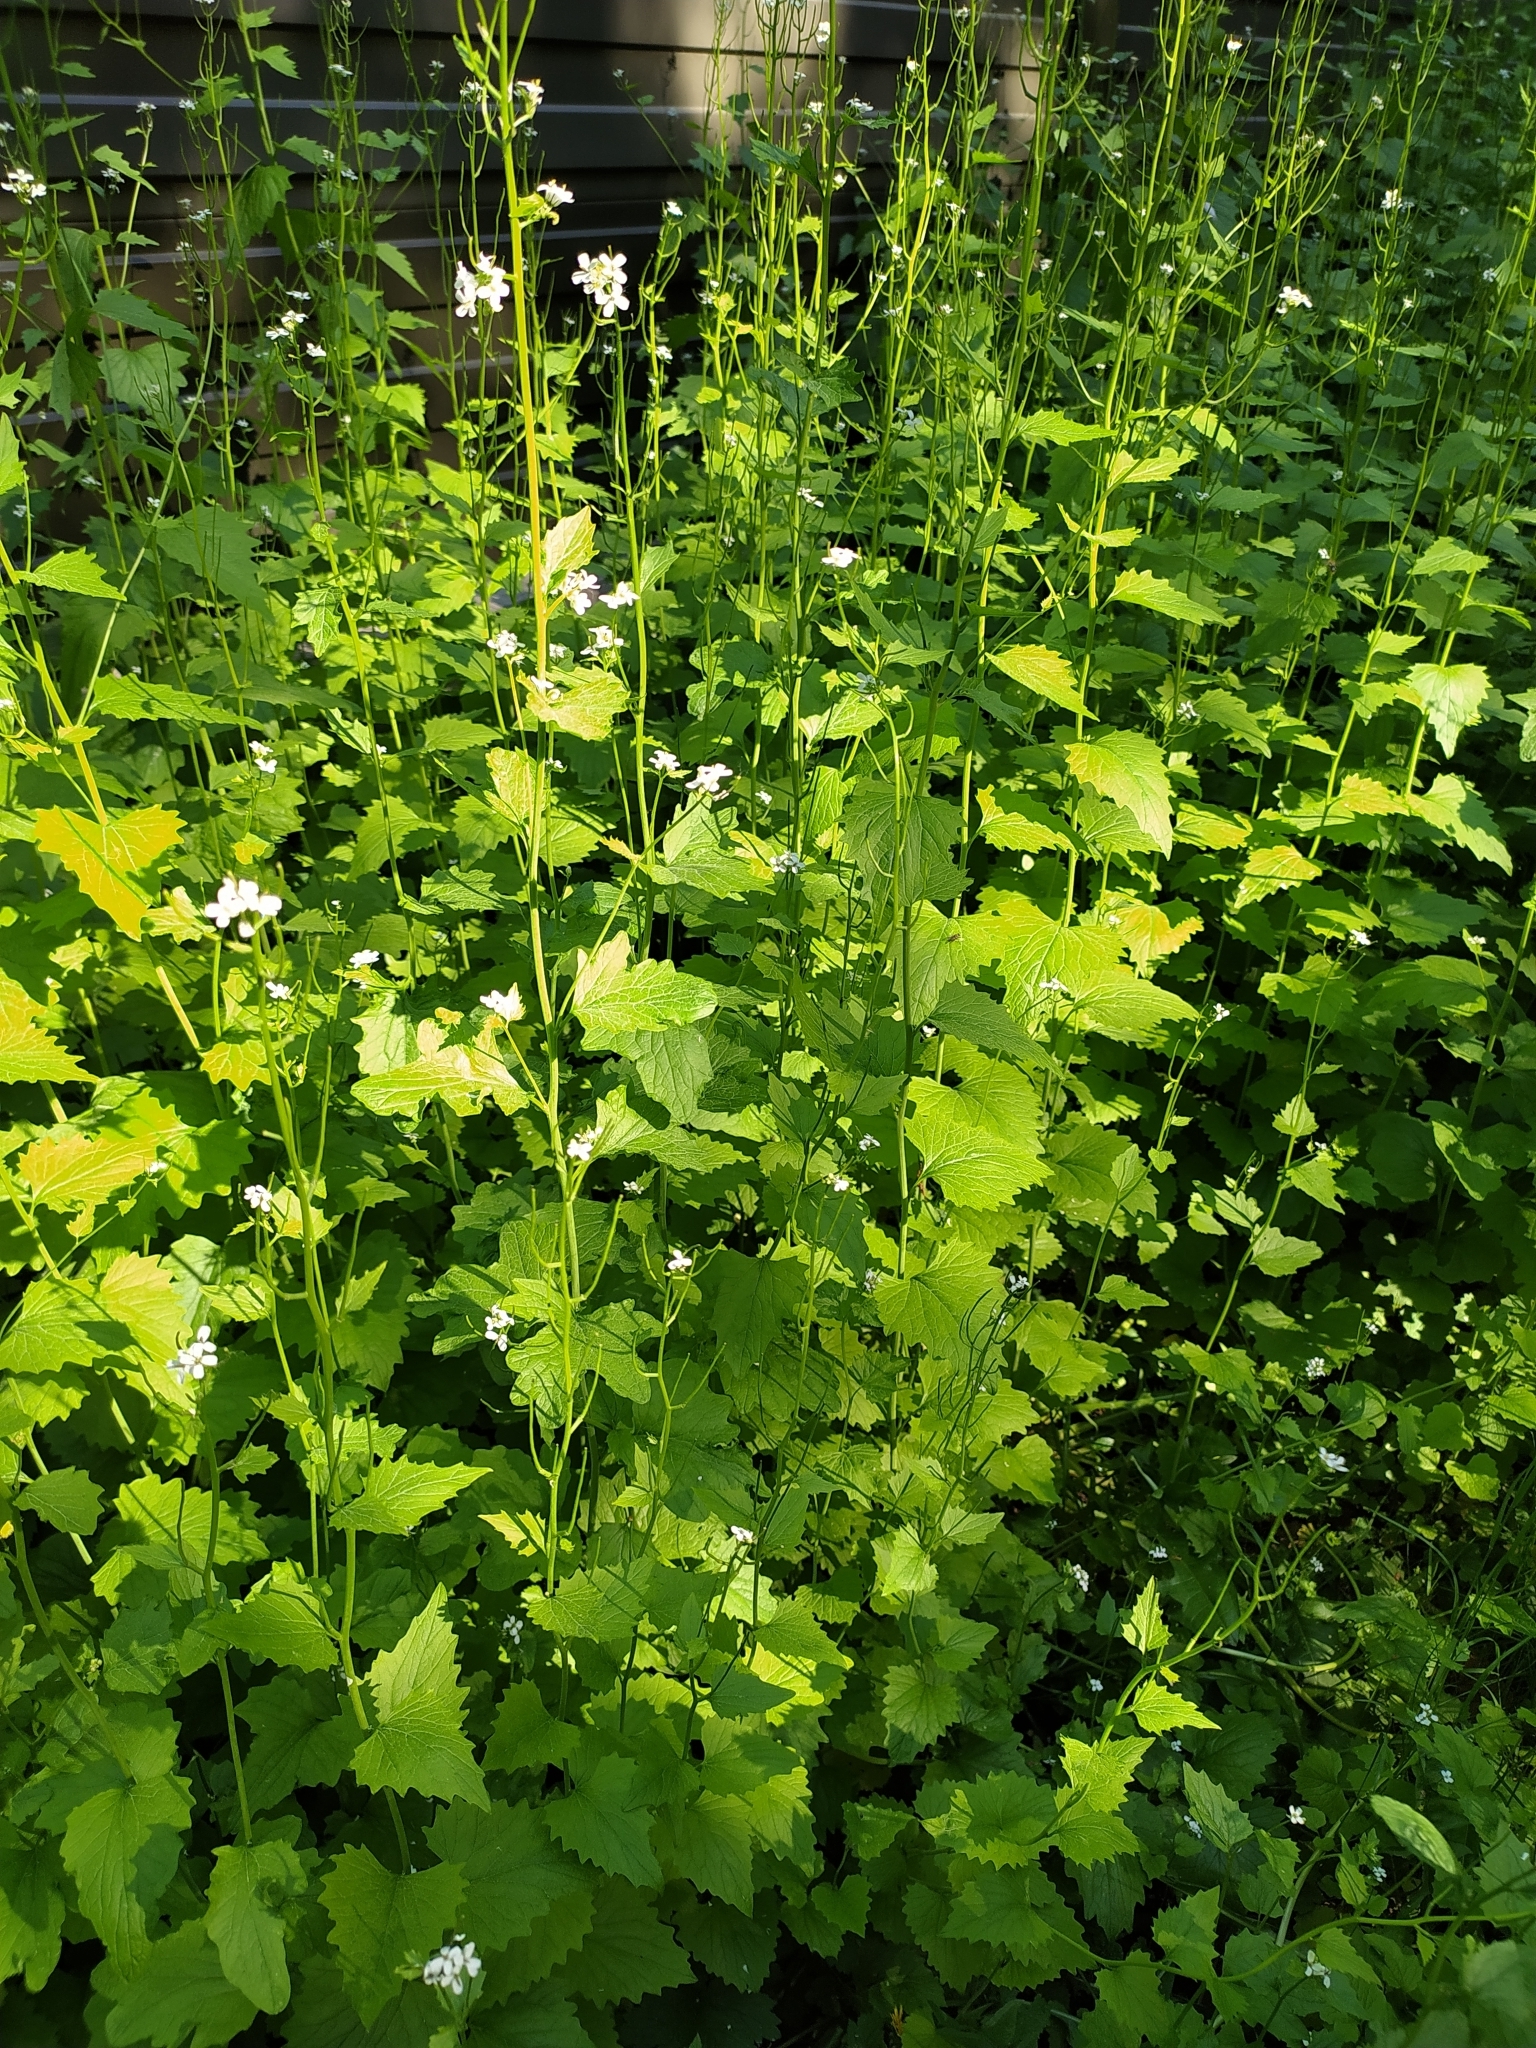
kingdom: Plantae
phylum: Tracheophyta
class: Magnoliopsida
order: Brassicales
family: Brassicaceae
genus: Alliaria
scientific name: Alliaria petiolata
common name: Garlic mustard
